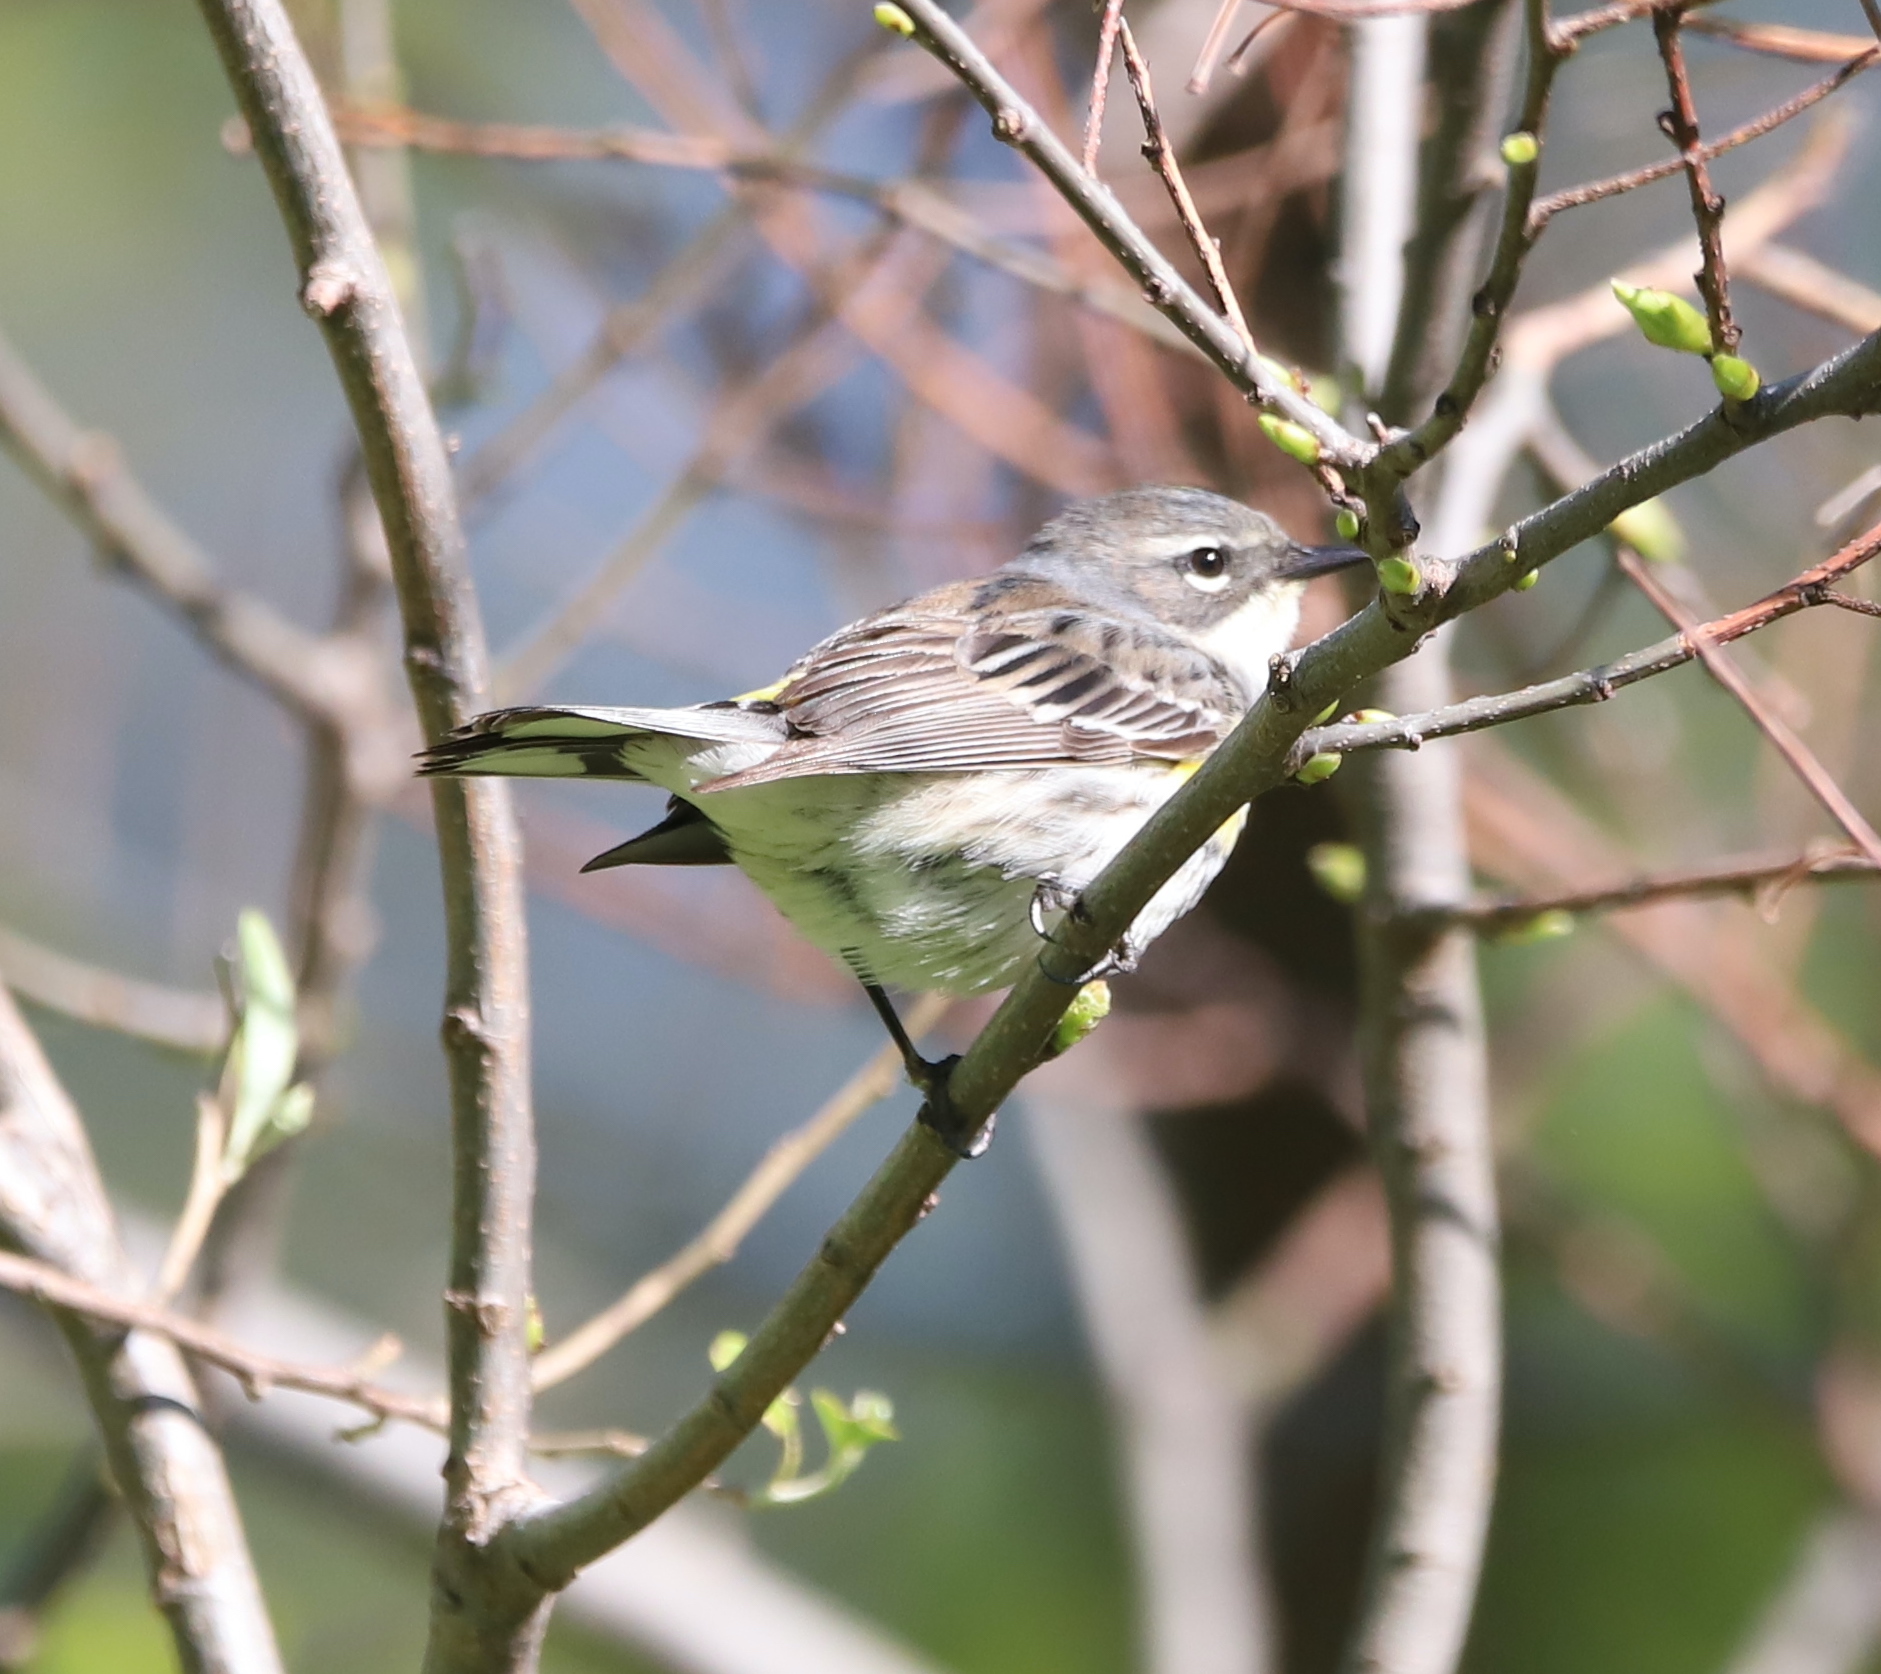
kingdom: Animalia
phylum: Chordata
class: Aves
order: Passeriformes
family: Parulidae
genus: Setophaga
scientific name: Setophaga coronata
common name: Myrtle warbler
